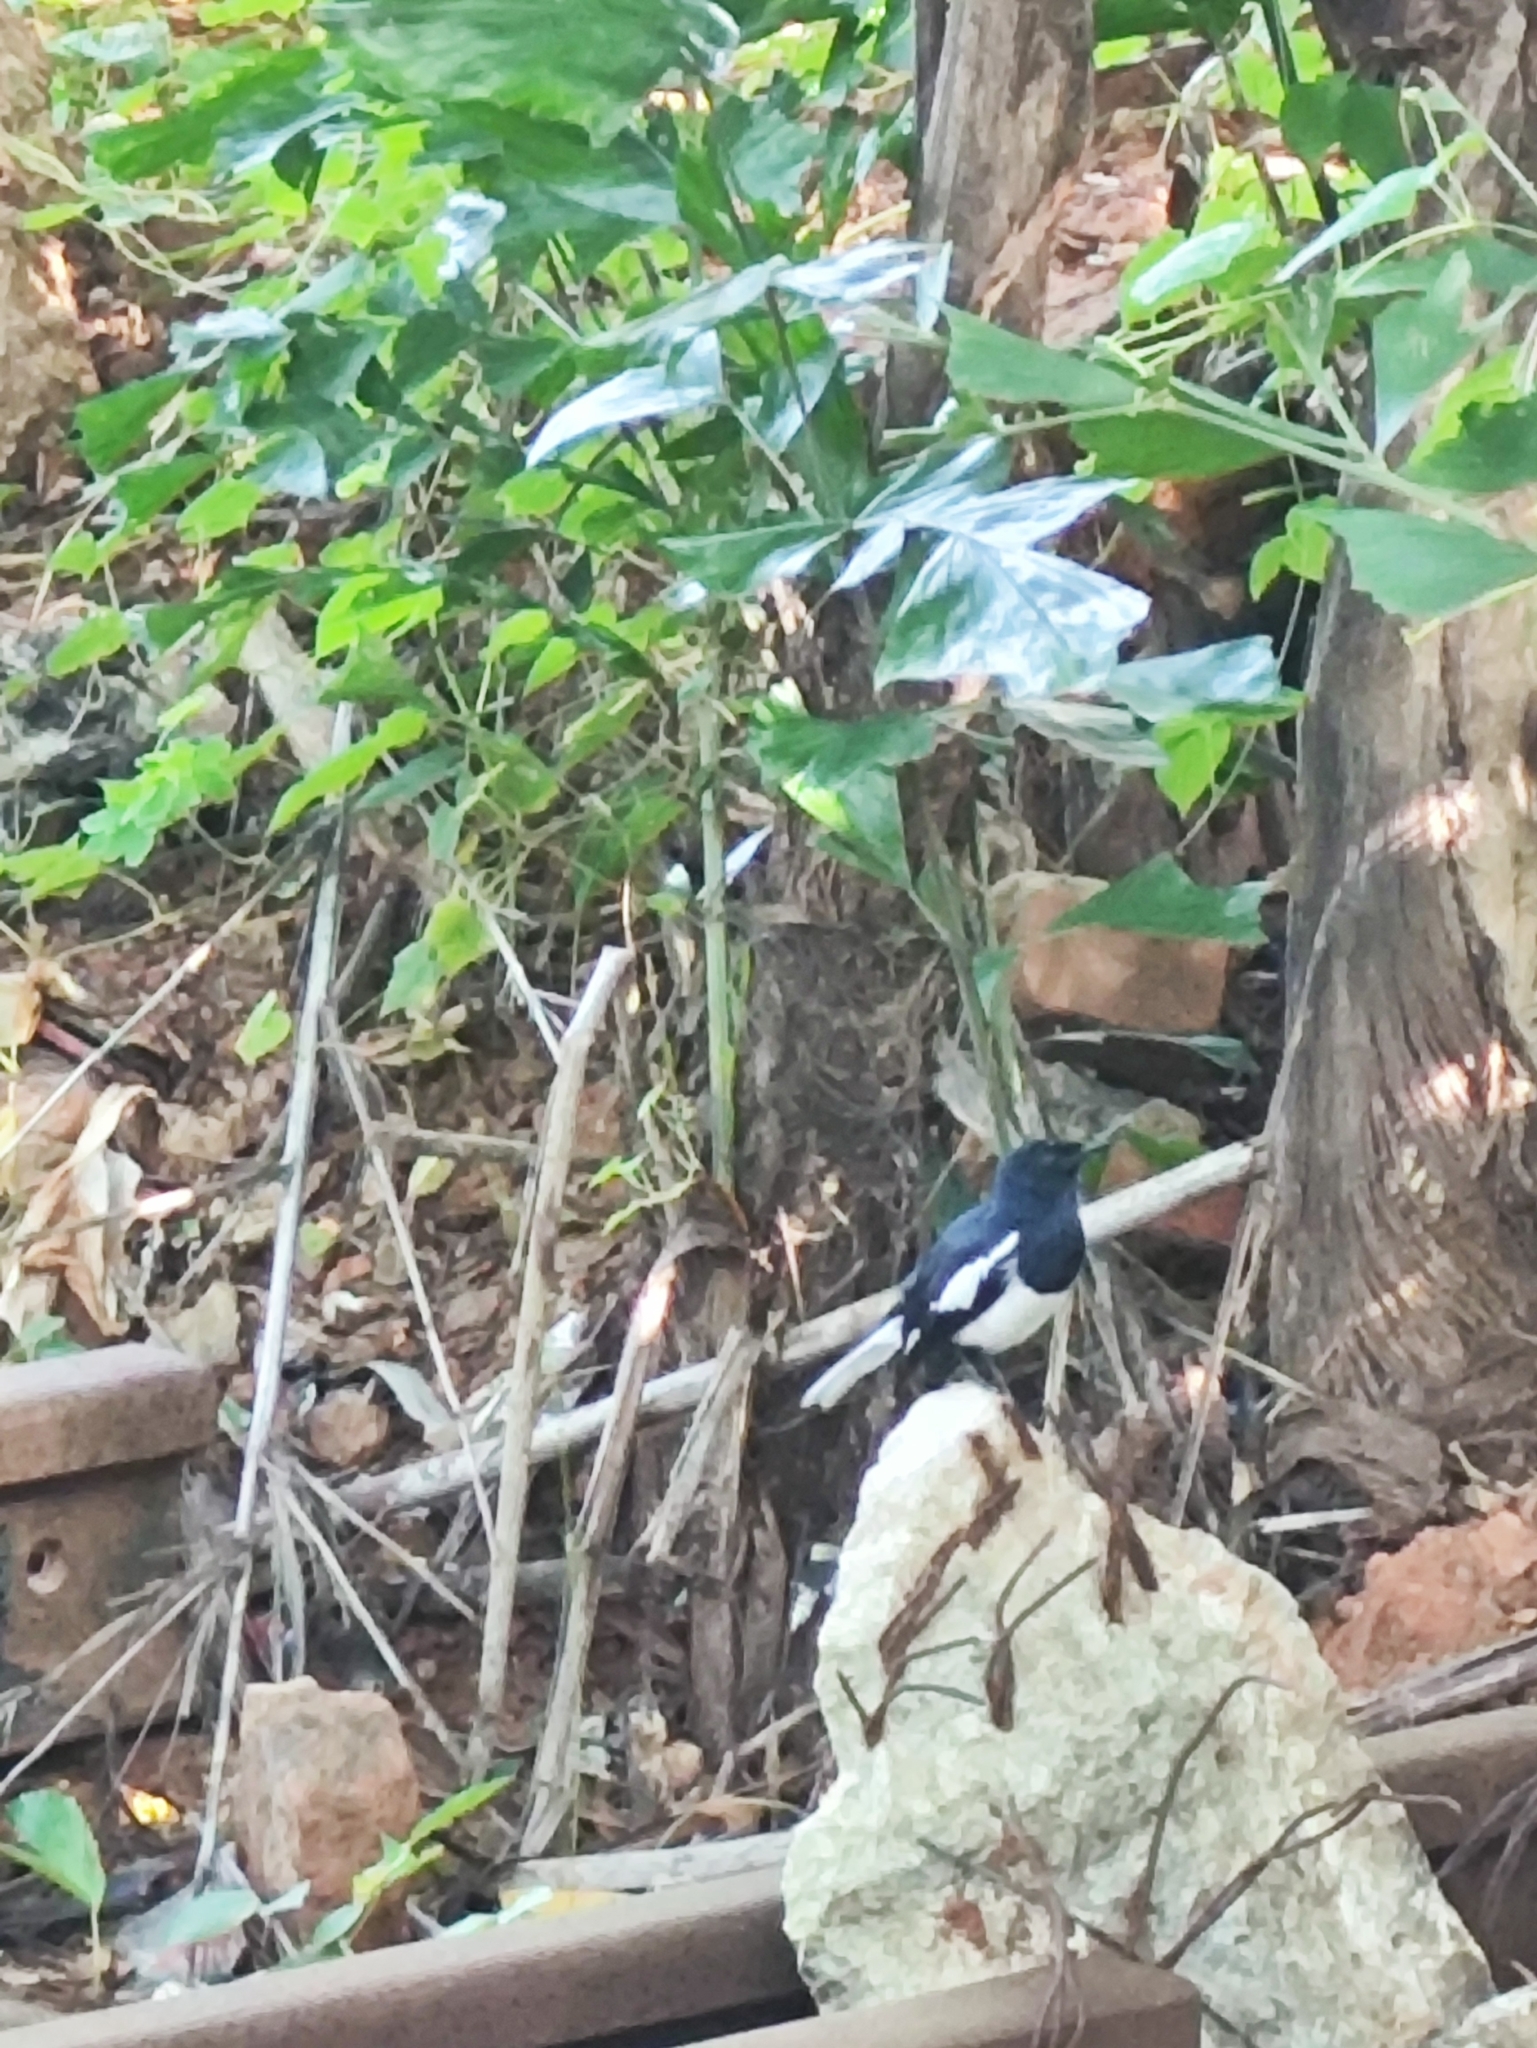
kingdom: Animalia
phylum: Chordata
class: Aves
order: Passeriformes
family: Muscicapidae
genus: Copsychus
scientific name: Copsychus saularis
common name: Oriental magpie-robin
